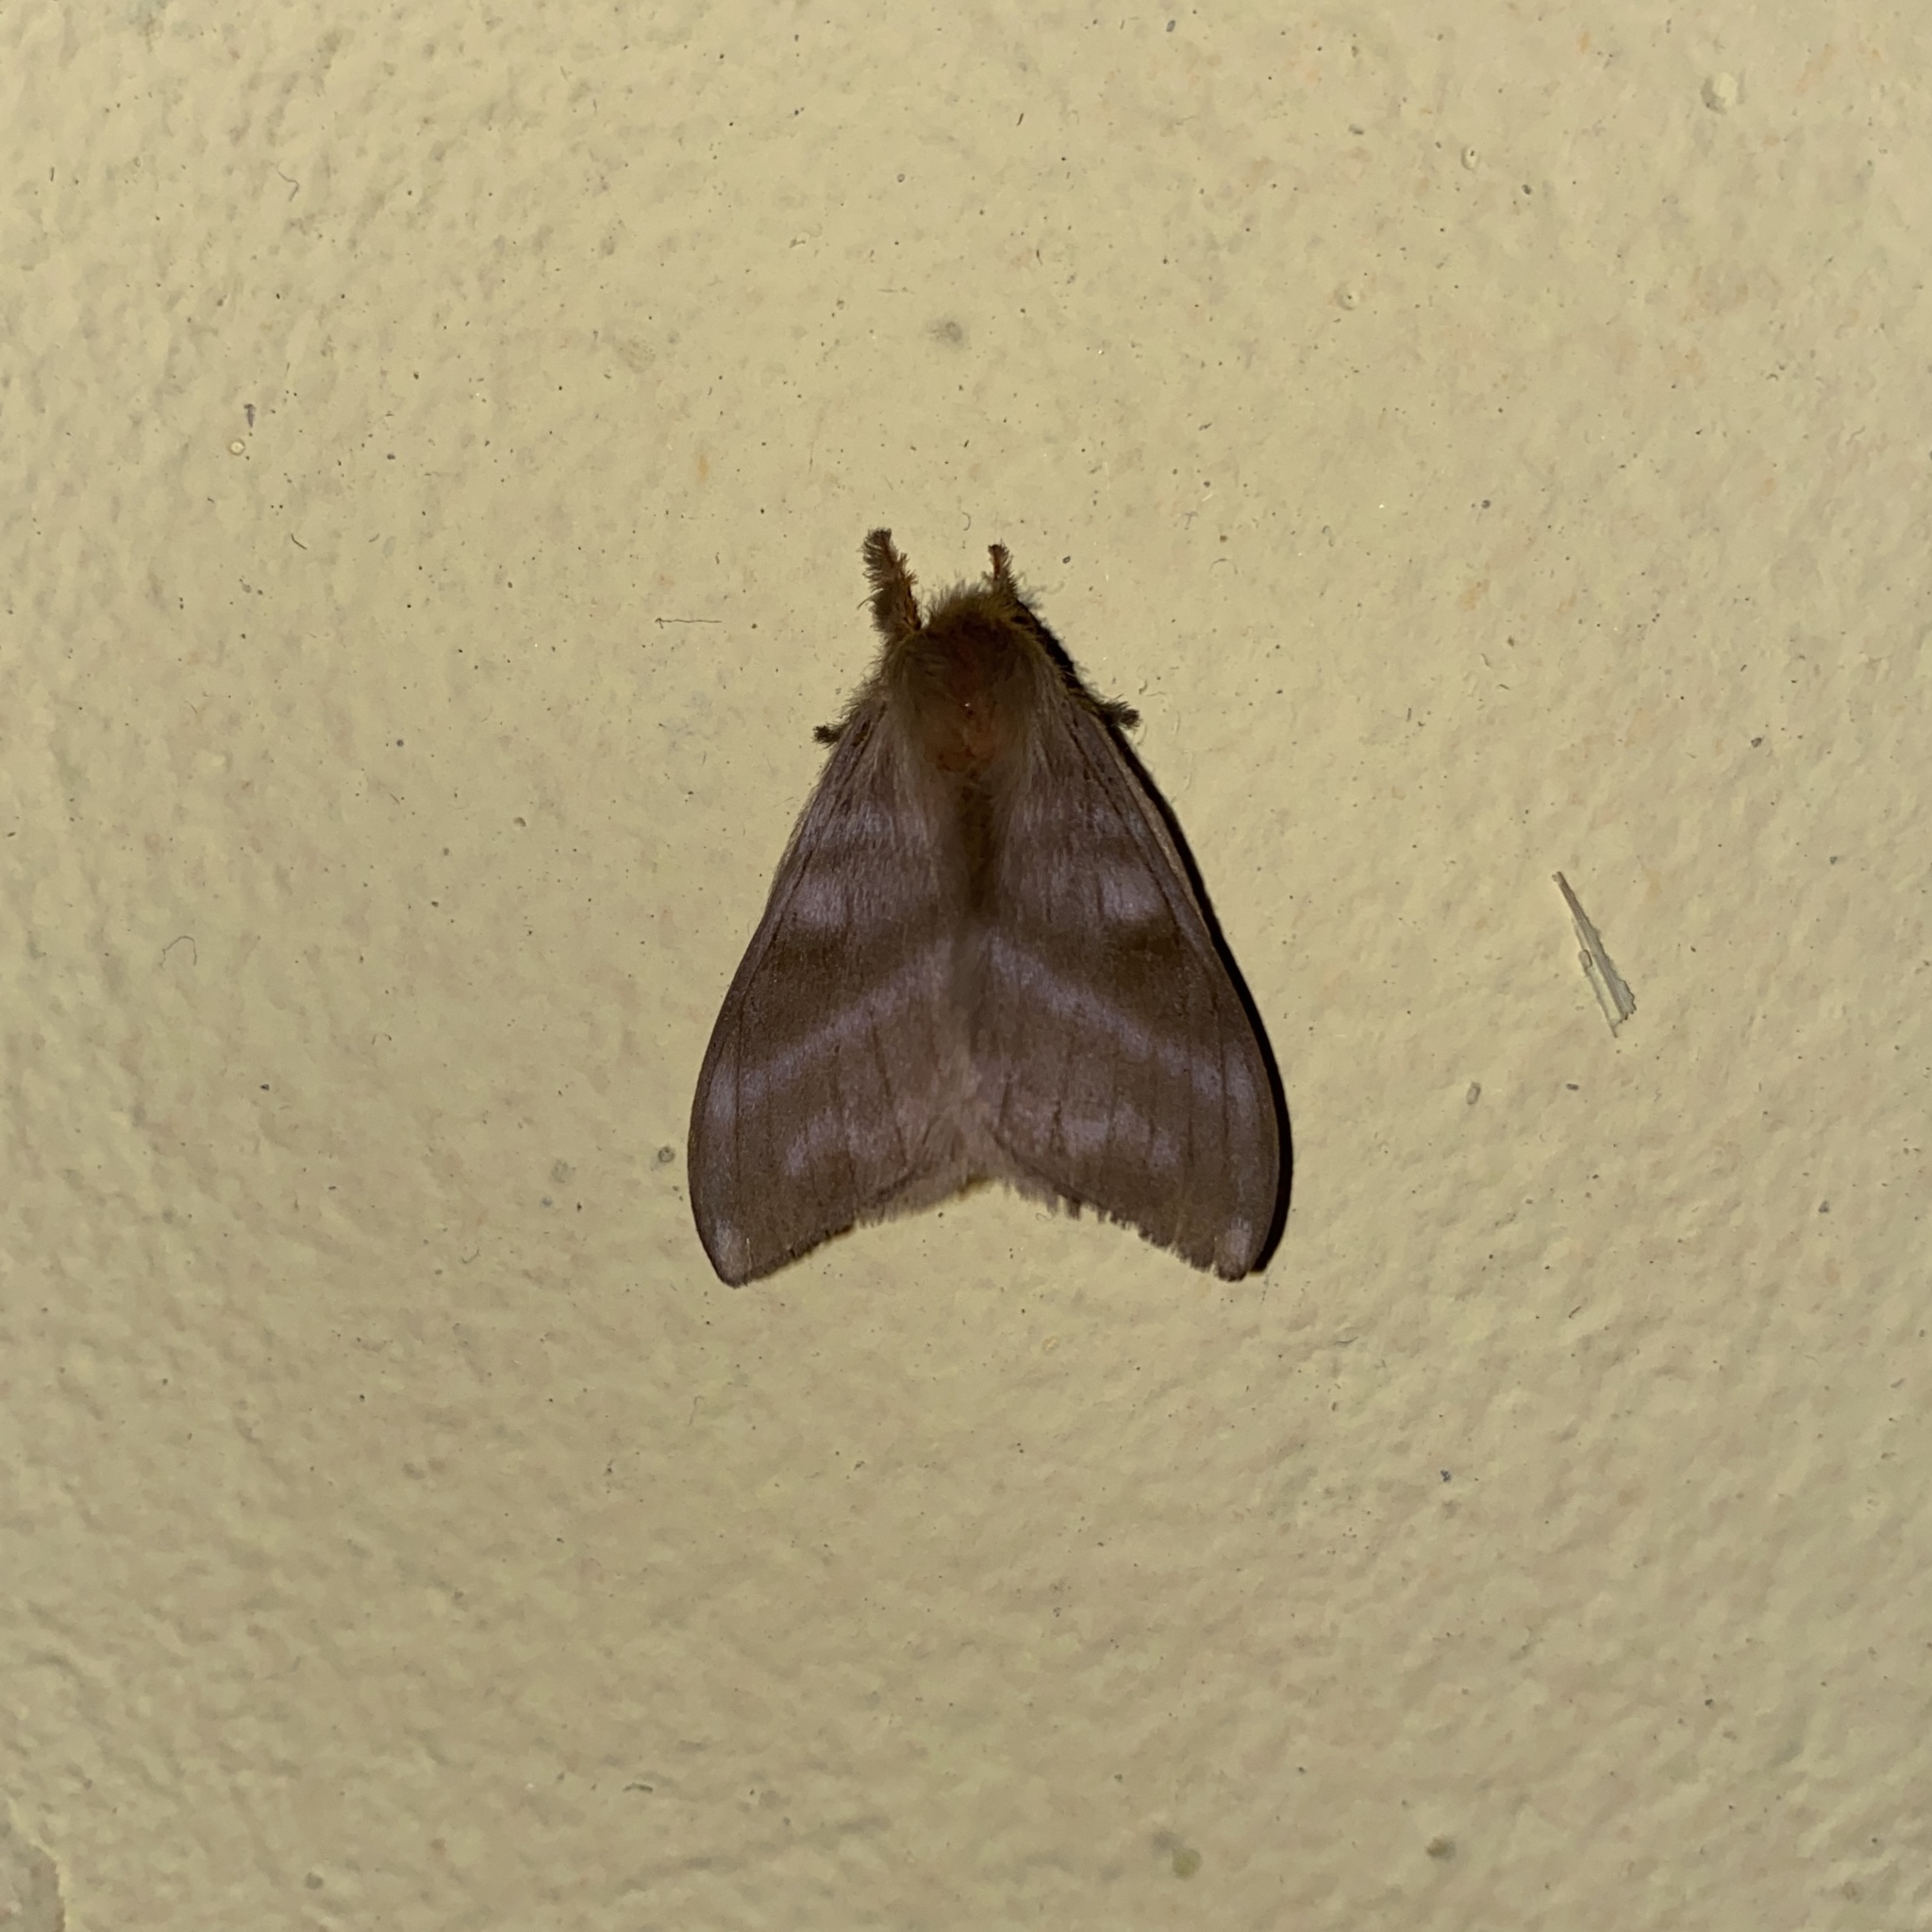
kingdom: Animalia
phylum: Arthropoda
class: Insecta
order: Lepidoptera
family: Saturniidae
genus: Hylesia
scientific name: Hylesia metabus
